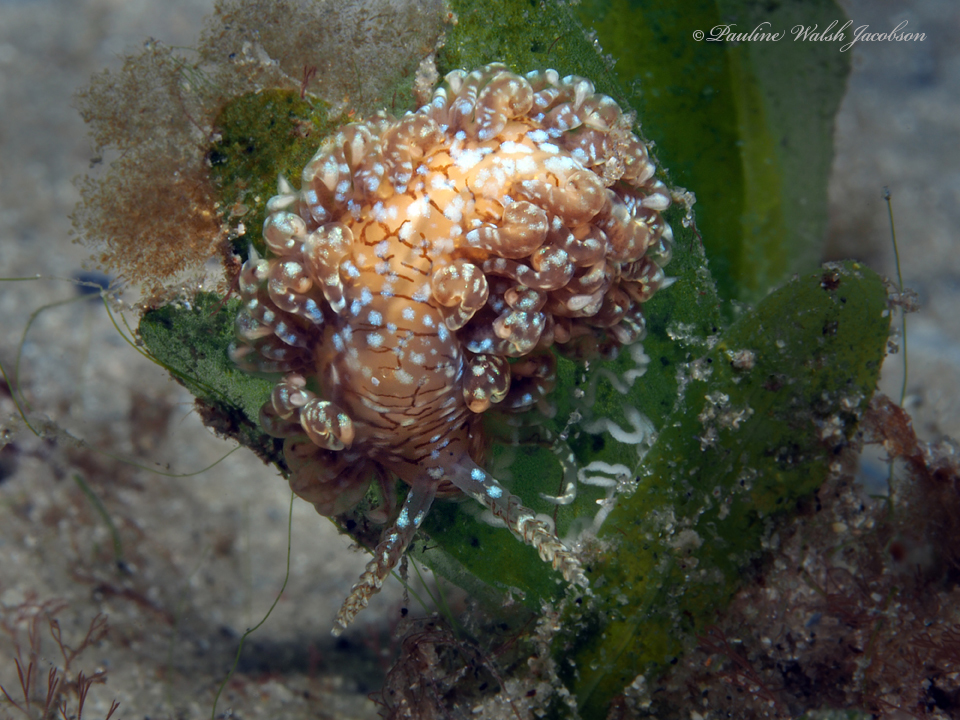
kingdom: Animalia
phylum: Mollusca
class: Gastropoda
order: Nudibranchia
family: Aeolidiidae
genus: Spurilla
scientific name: Spurilla dupontae
